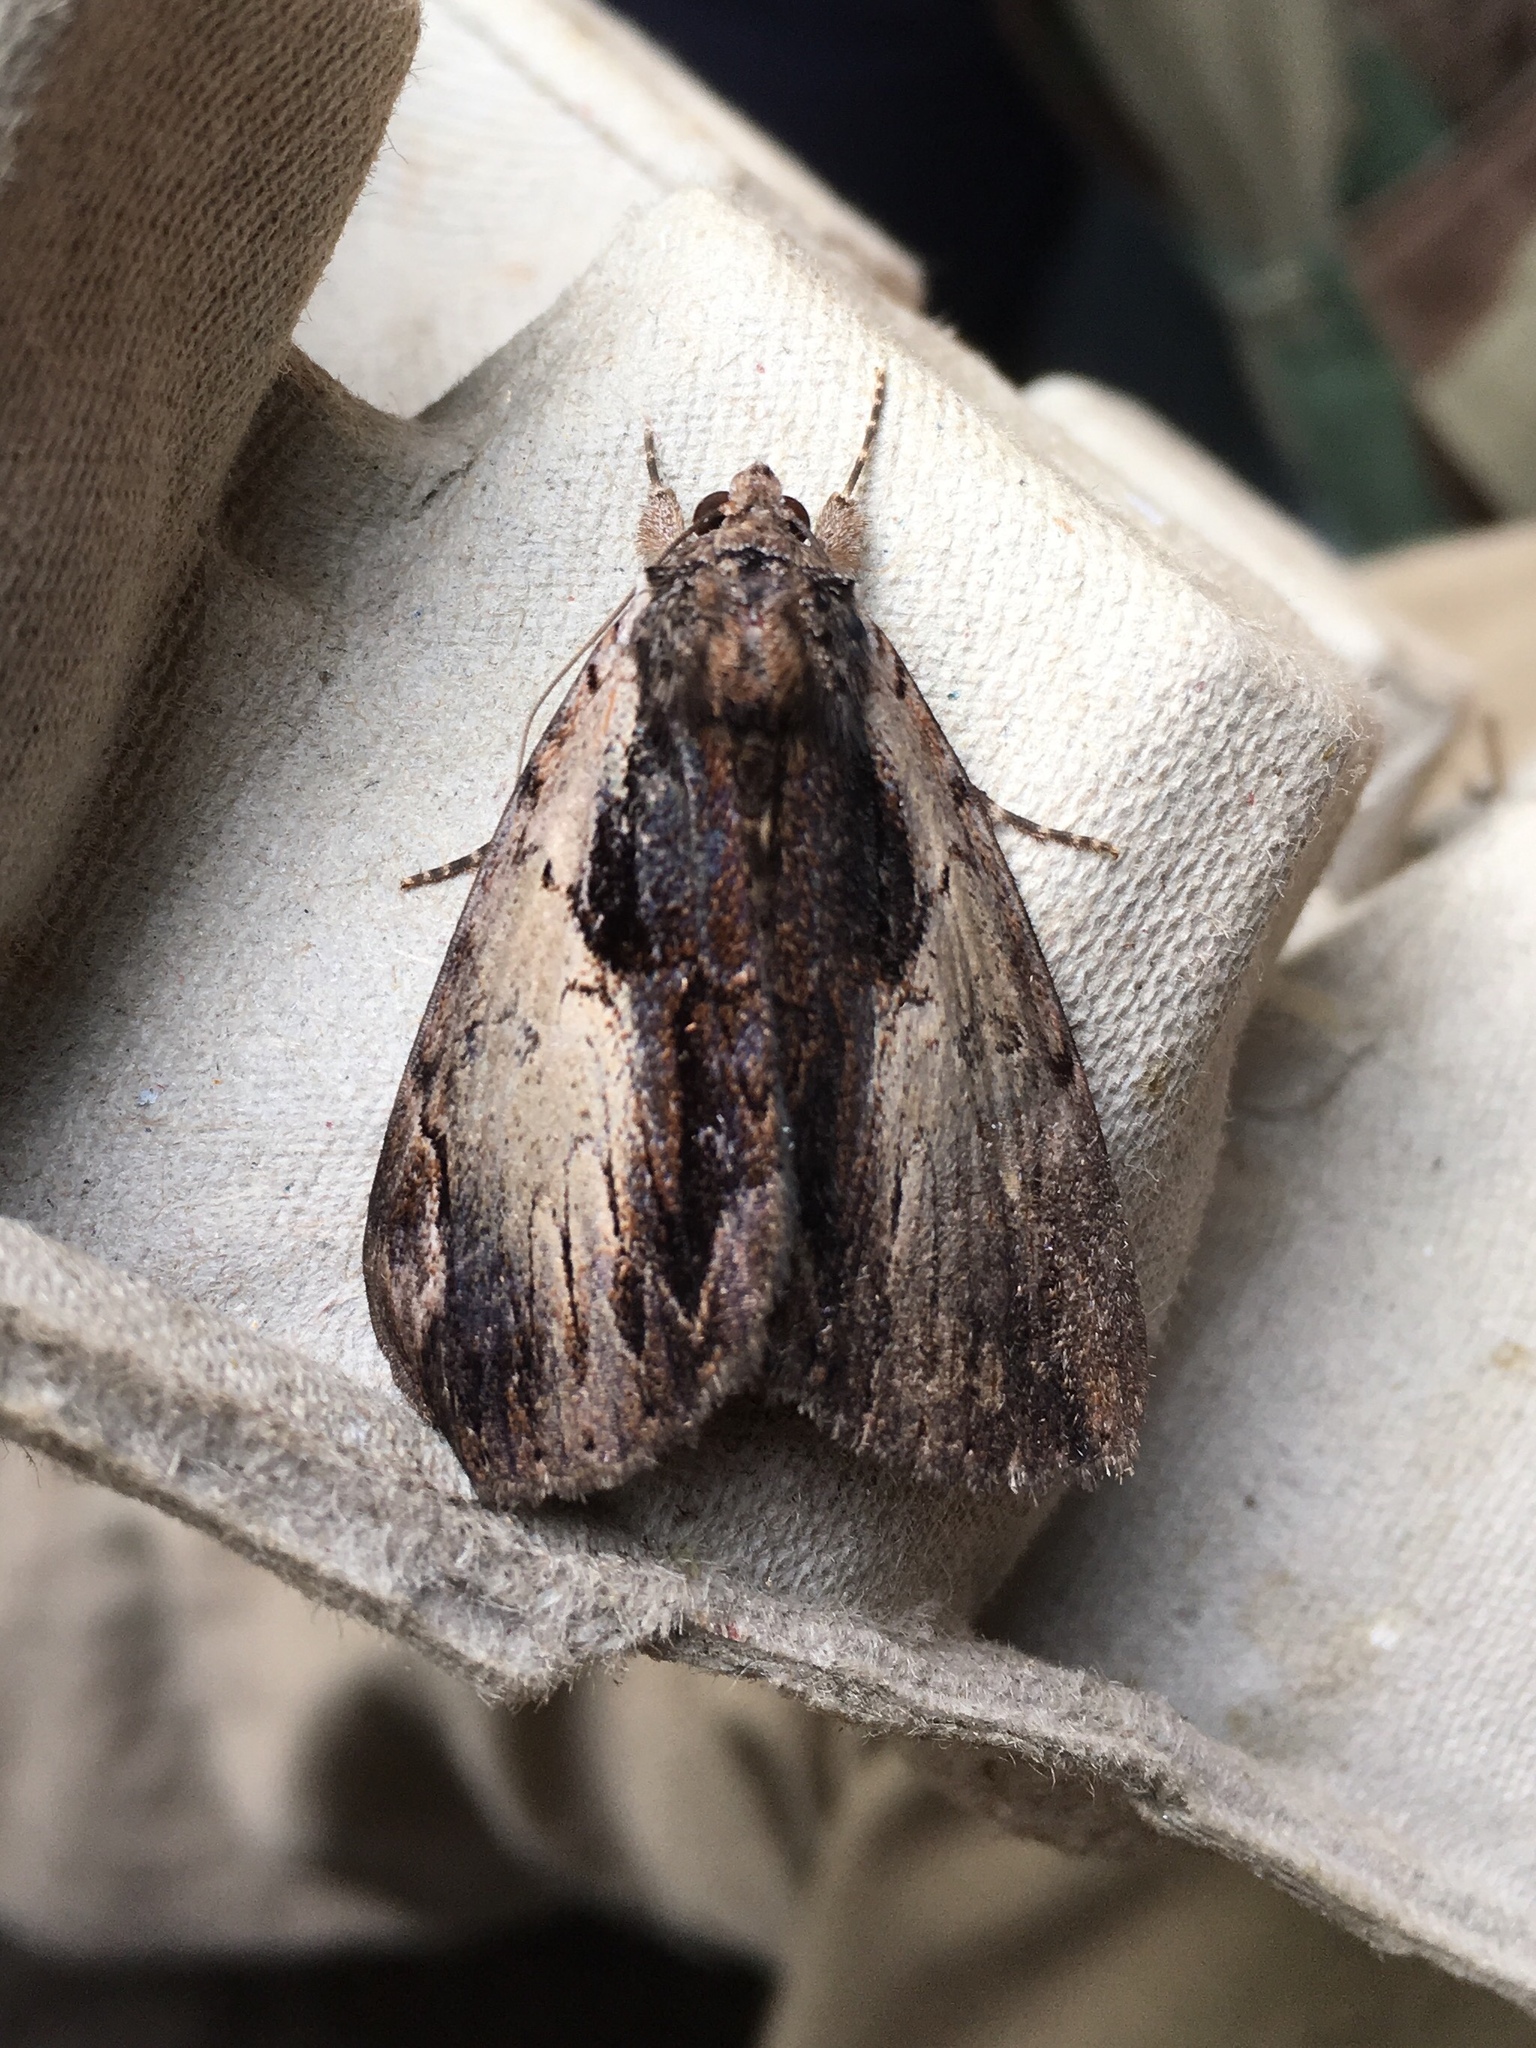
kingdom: Animalia
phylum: Arthropoda
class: Insecta
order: Lepidoptera
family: Erebidae
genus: Catocala
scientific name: Catocala ultronia
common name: Ultronia underwing
